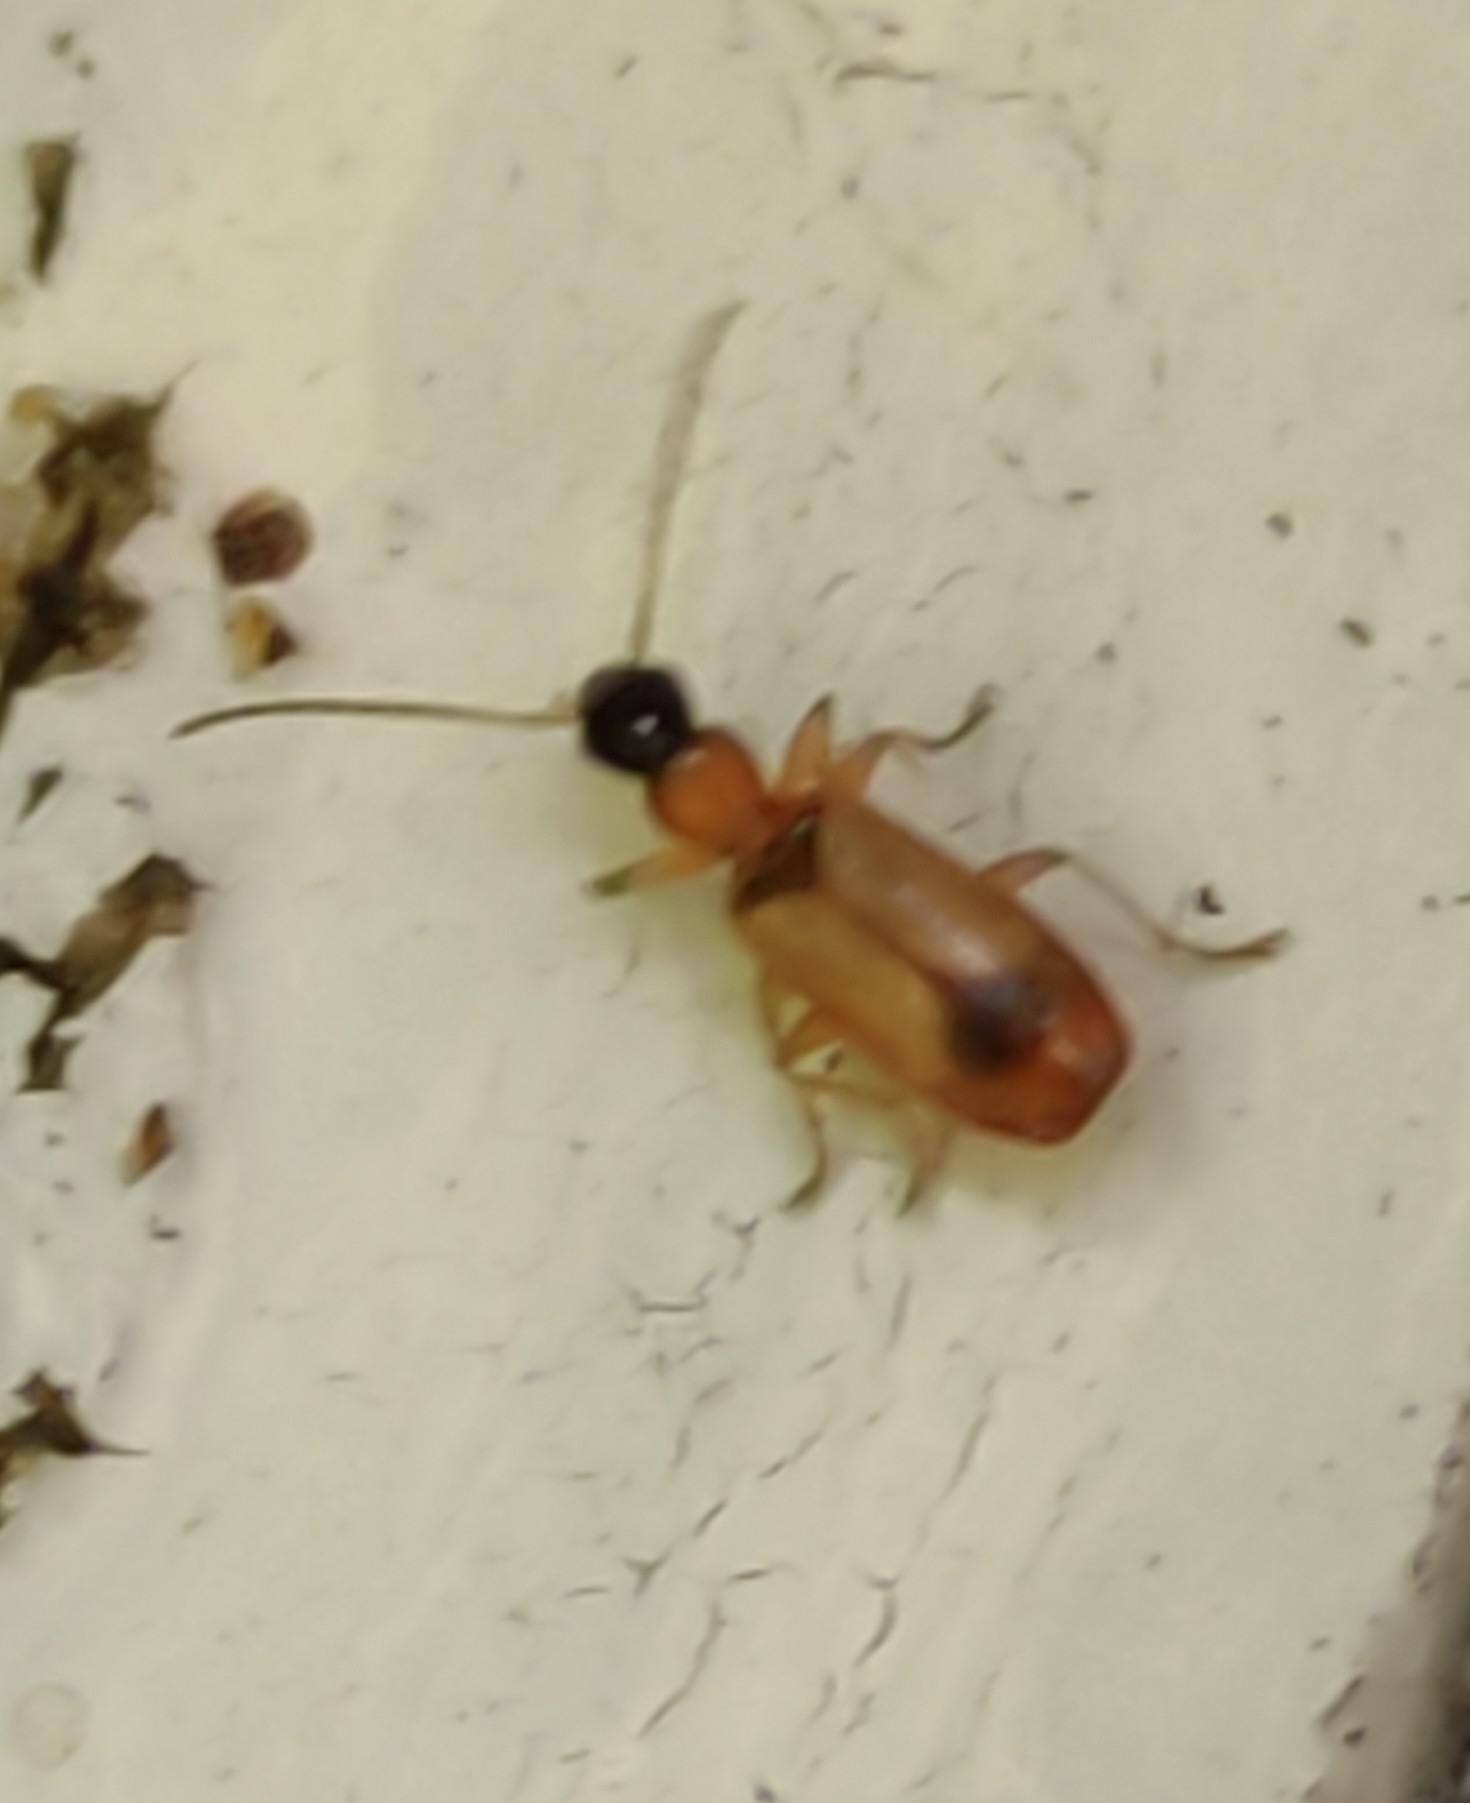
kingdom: Animalia
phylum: Arthropoda
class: Insecta
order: Coleoptera
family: Carabidae
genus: Demetrias
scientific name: Demetrias monostigma
